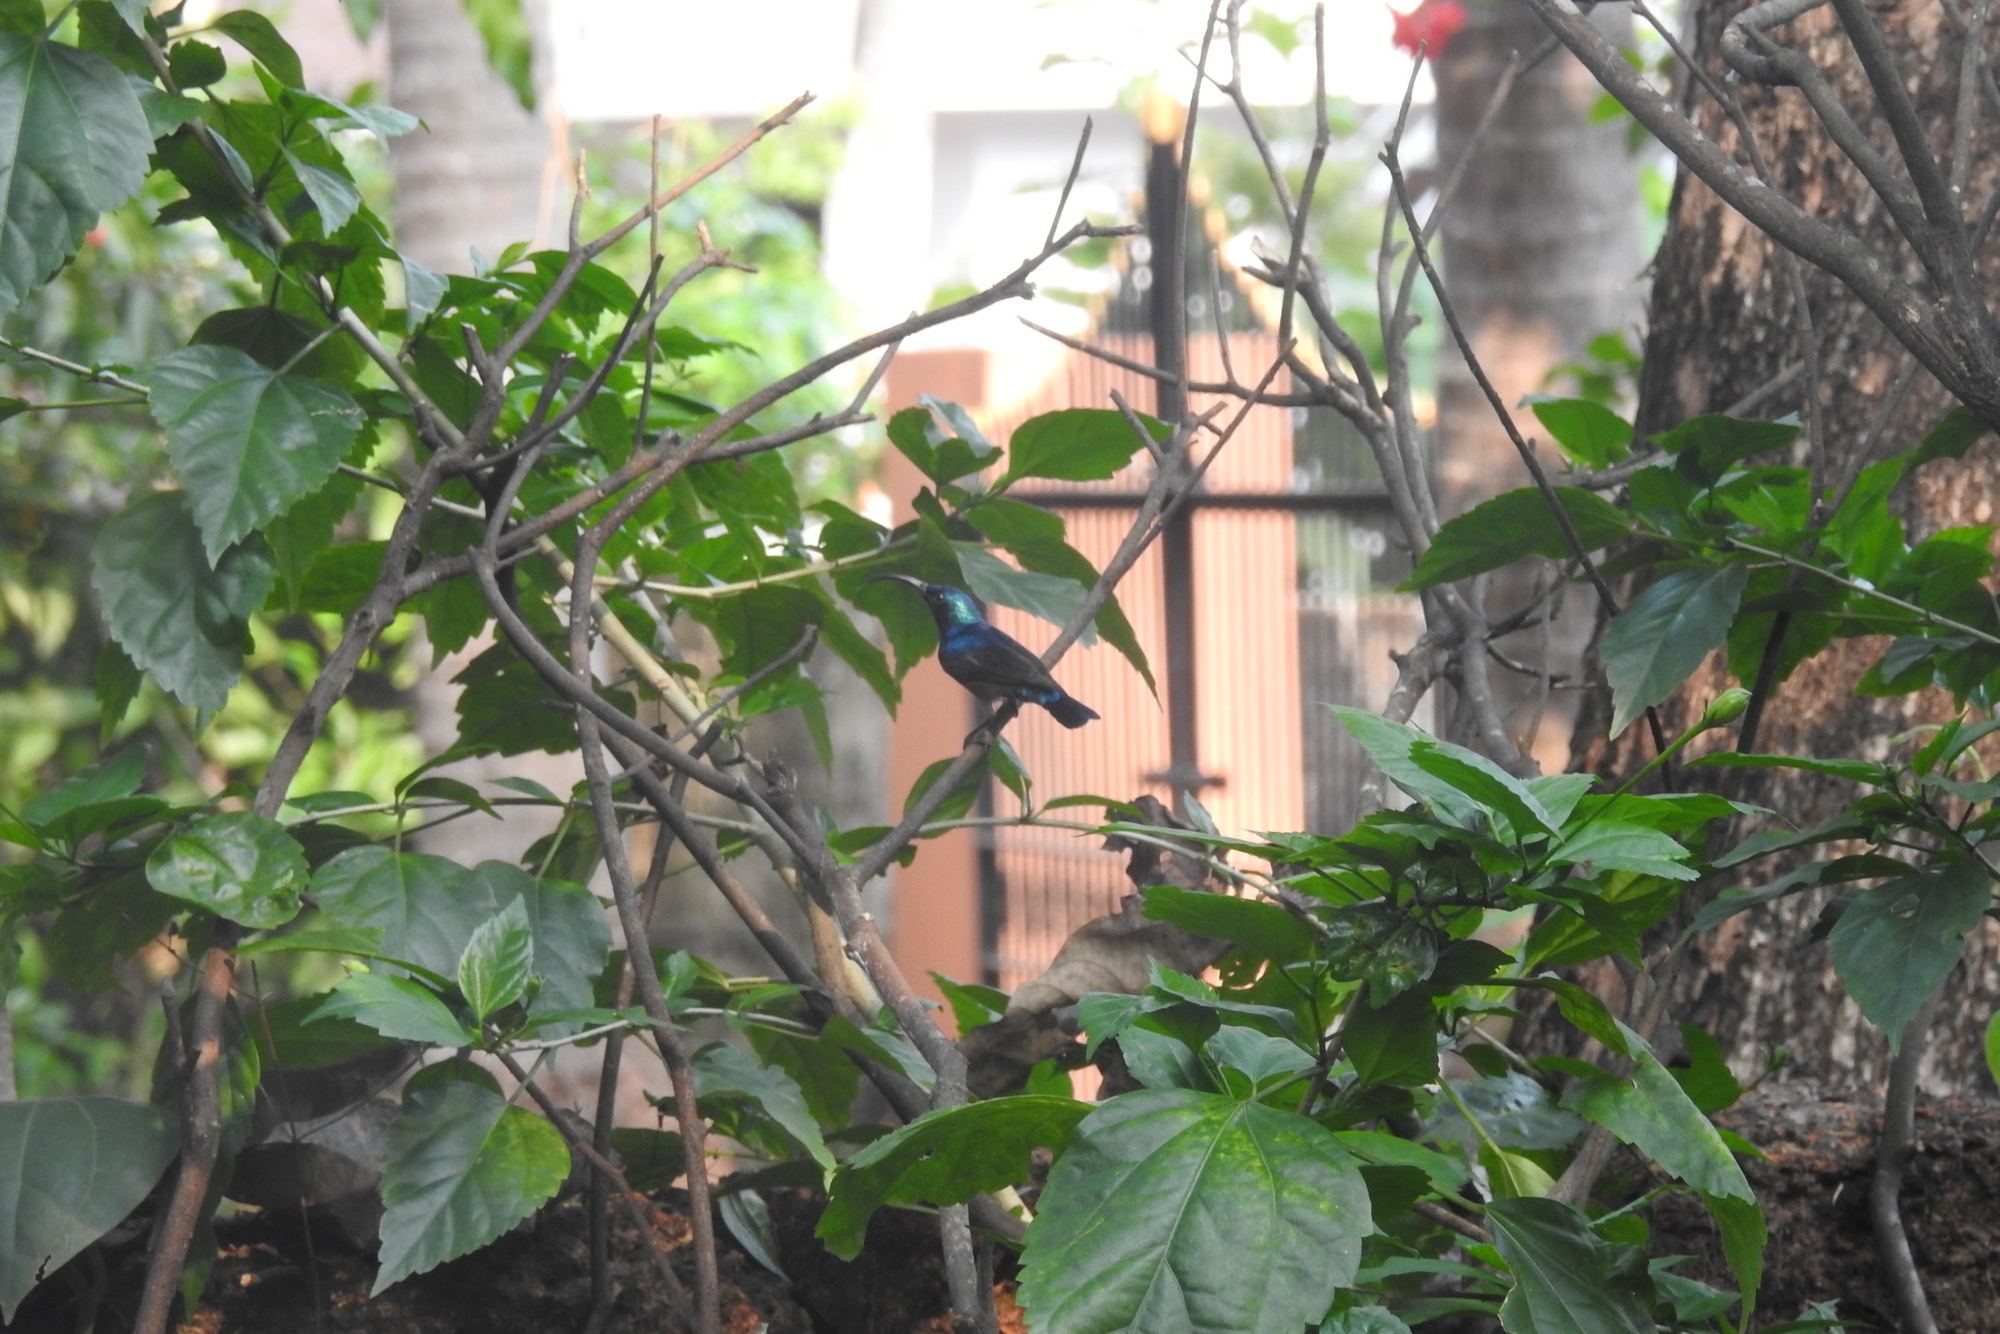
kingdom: Animalia
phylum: Chordata
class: Aves
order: Passeriformes
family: Nectariniidae
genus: Cinnyris
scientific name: Cinnyris asiaticus
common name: Purple sunbird
